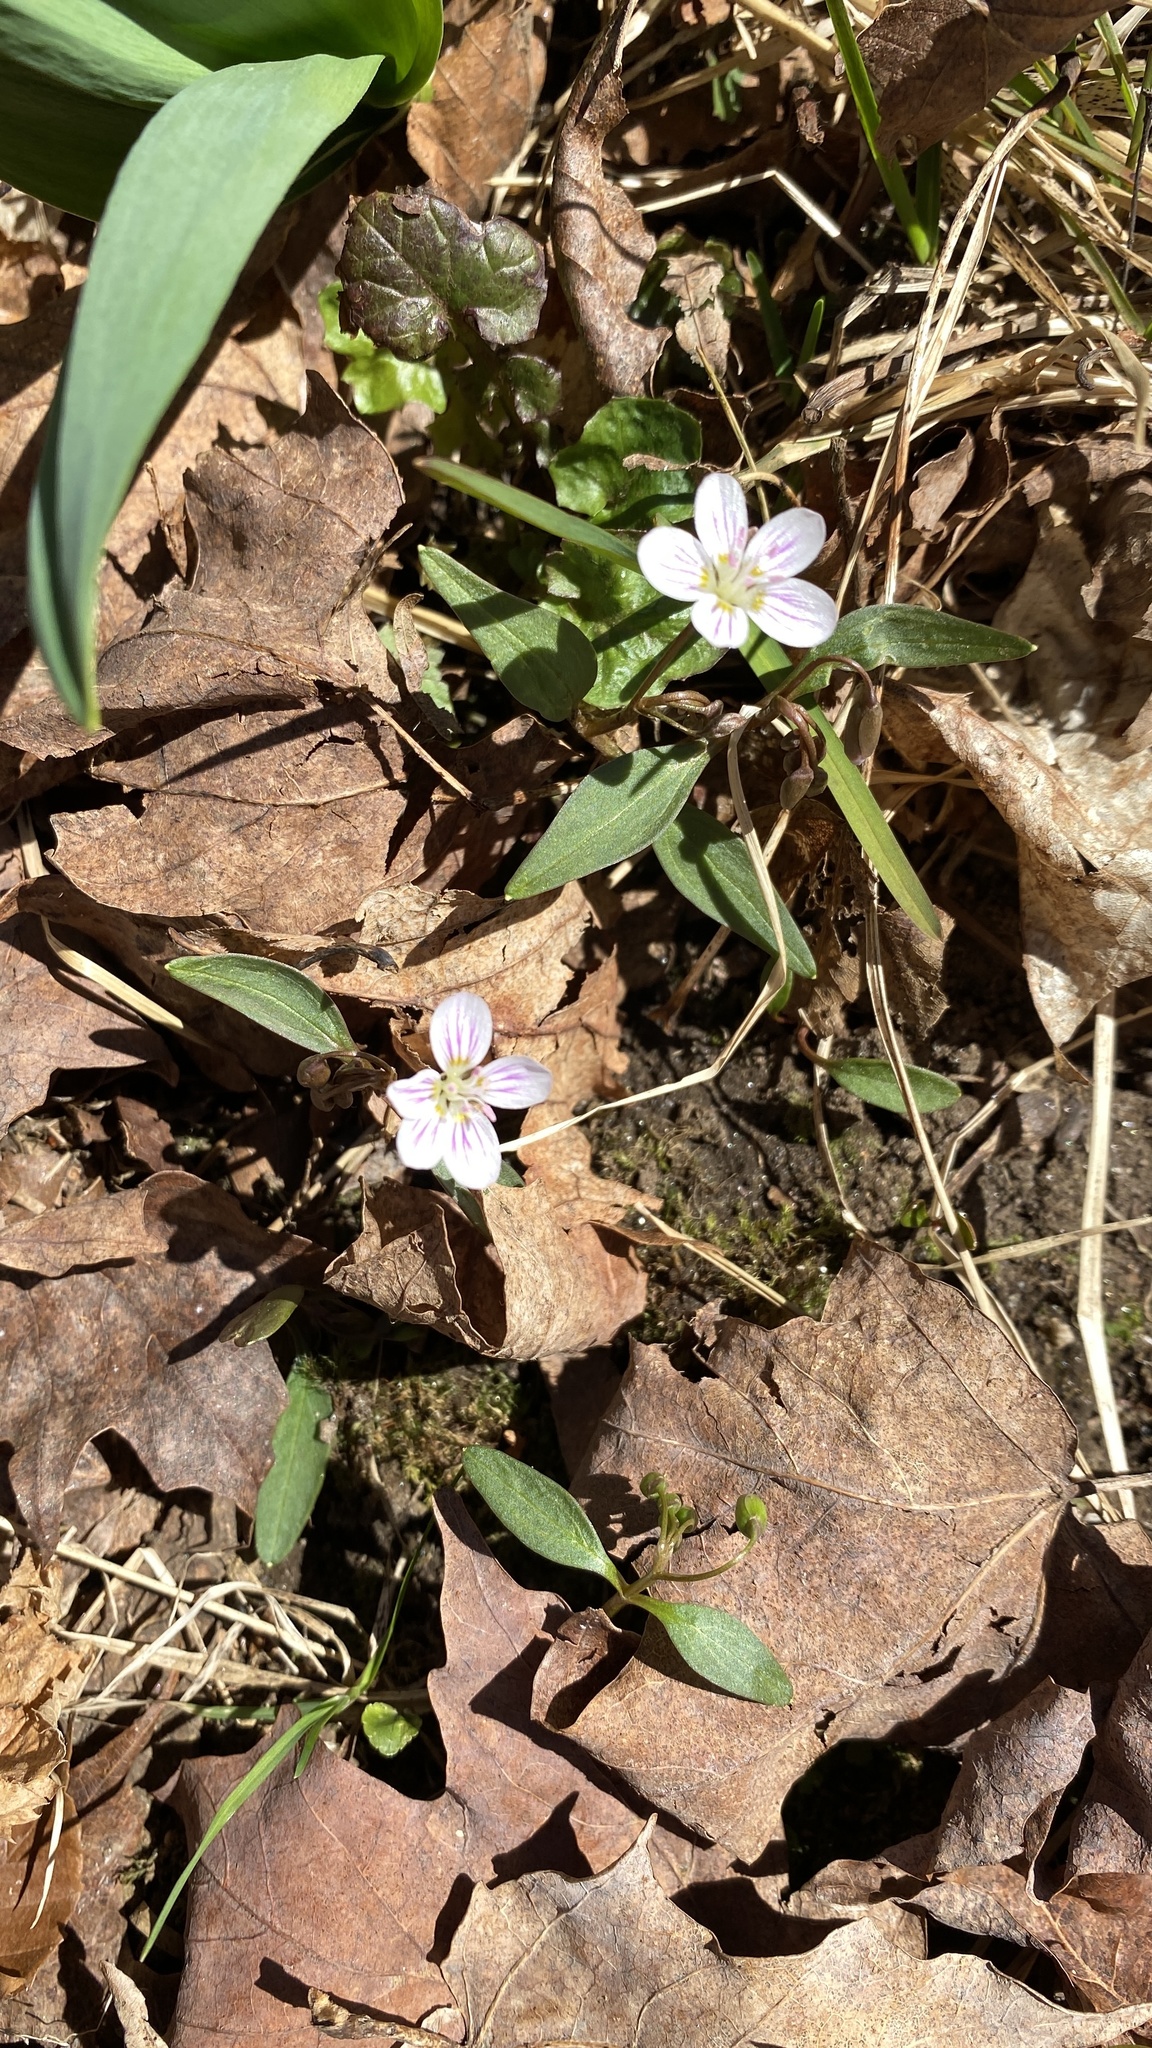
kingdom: Plantae
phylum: Tracheophyta
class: Magnoliopsida
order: Caryophyllales
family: Montiaceae
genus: Claytonia
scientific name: Claytonia caroliniana
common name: Carolina spring beauty
